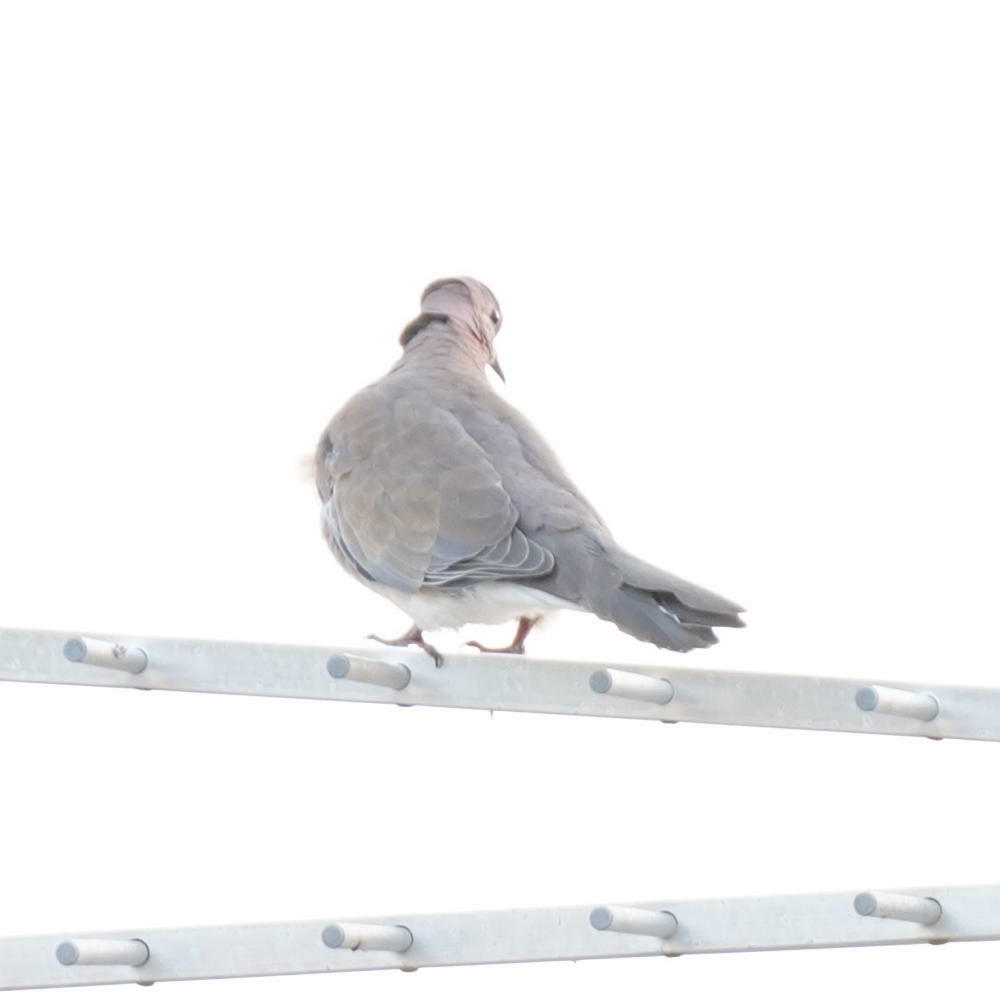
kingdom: Animalia
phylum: Chordata
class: Aves
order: Columbiformes
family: Columbidae
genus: Spilopelia
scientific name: Spilopelia senegalensis
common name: Laughing dove
